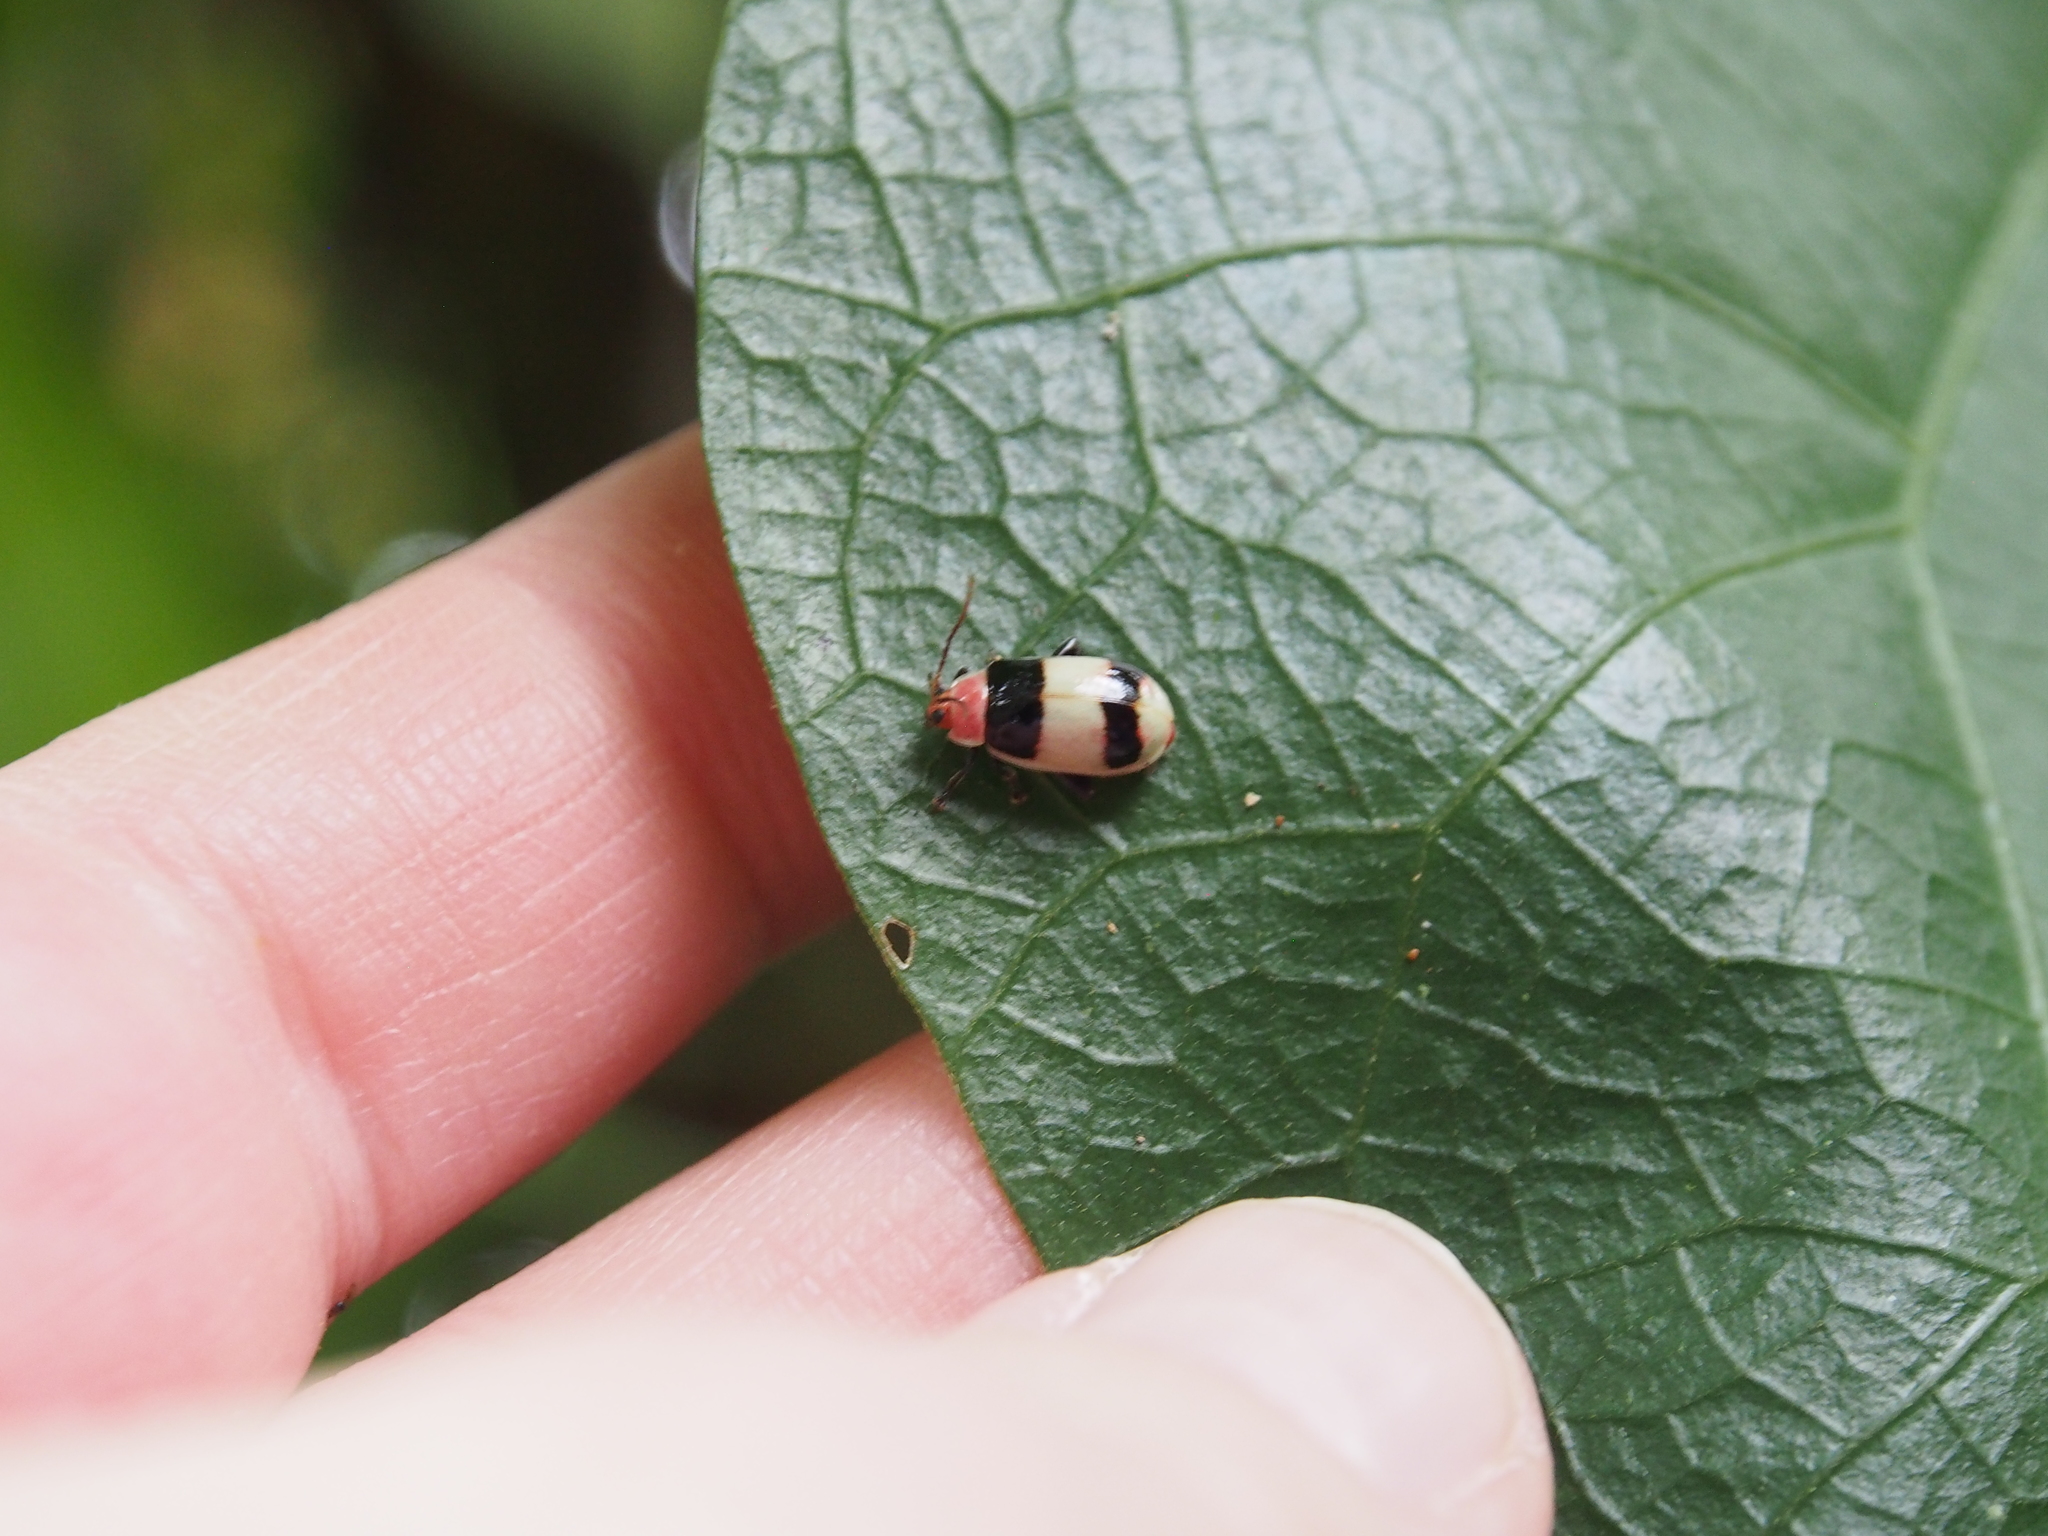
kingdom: Animalia
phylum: Arthropoda
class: Insecta
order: Coleoptera
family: Chrysomelidae
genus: Asphaera
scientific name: Asphaera
